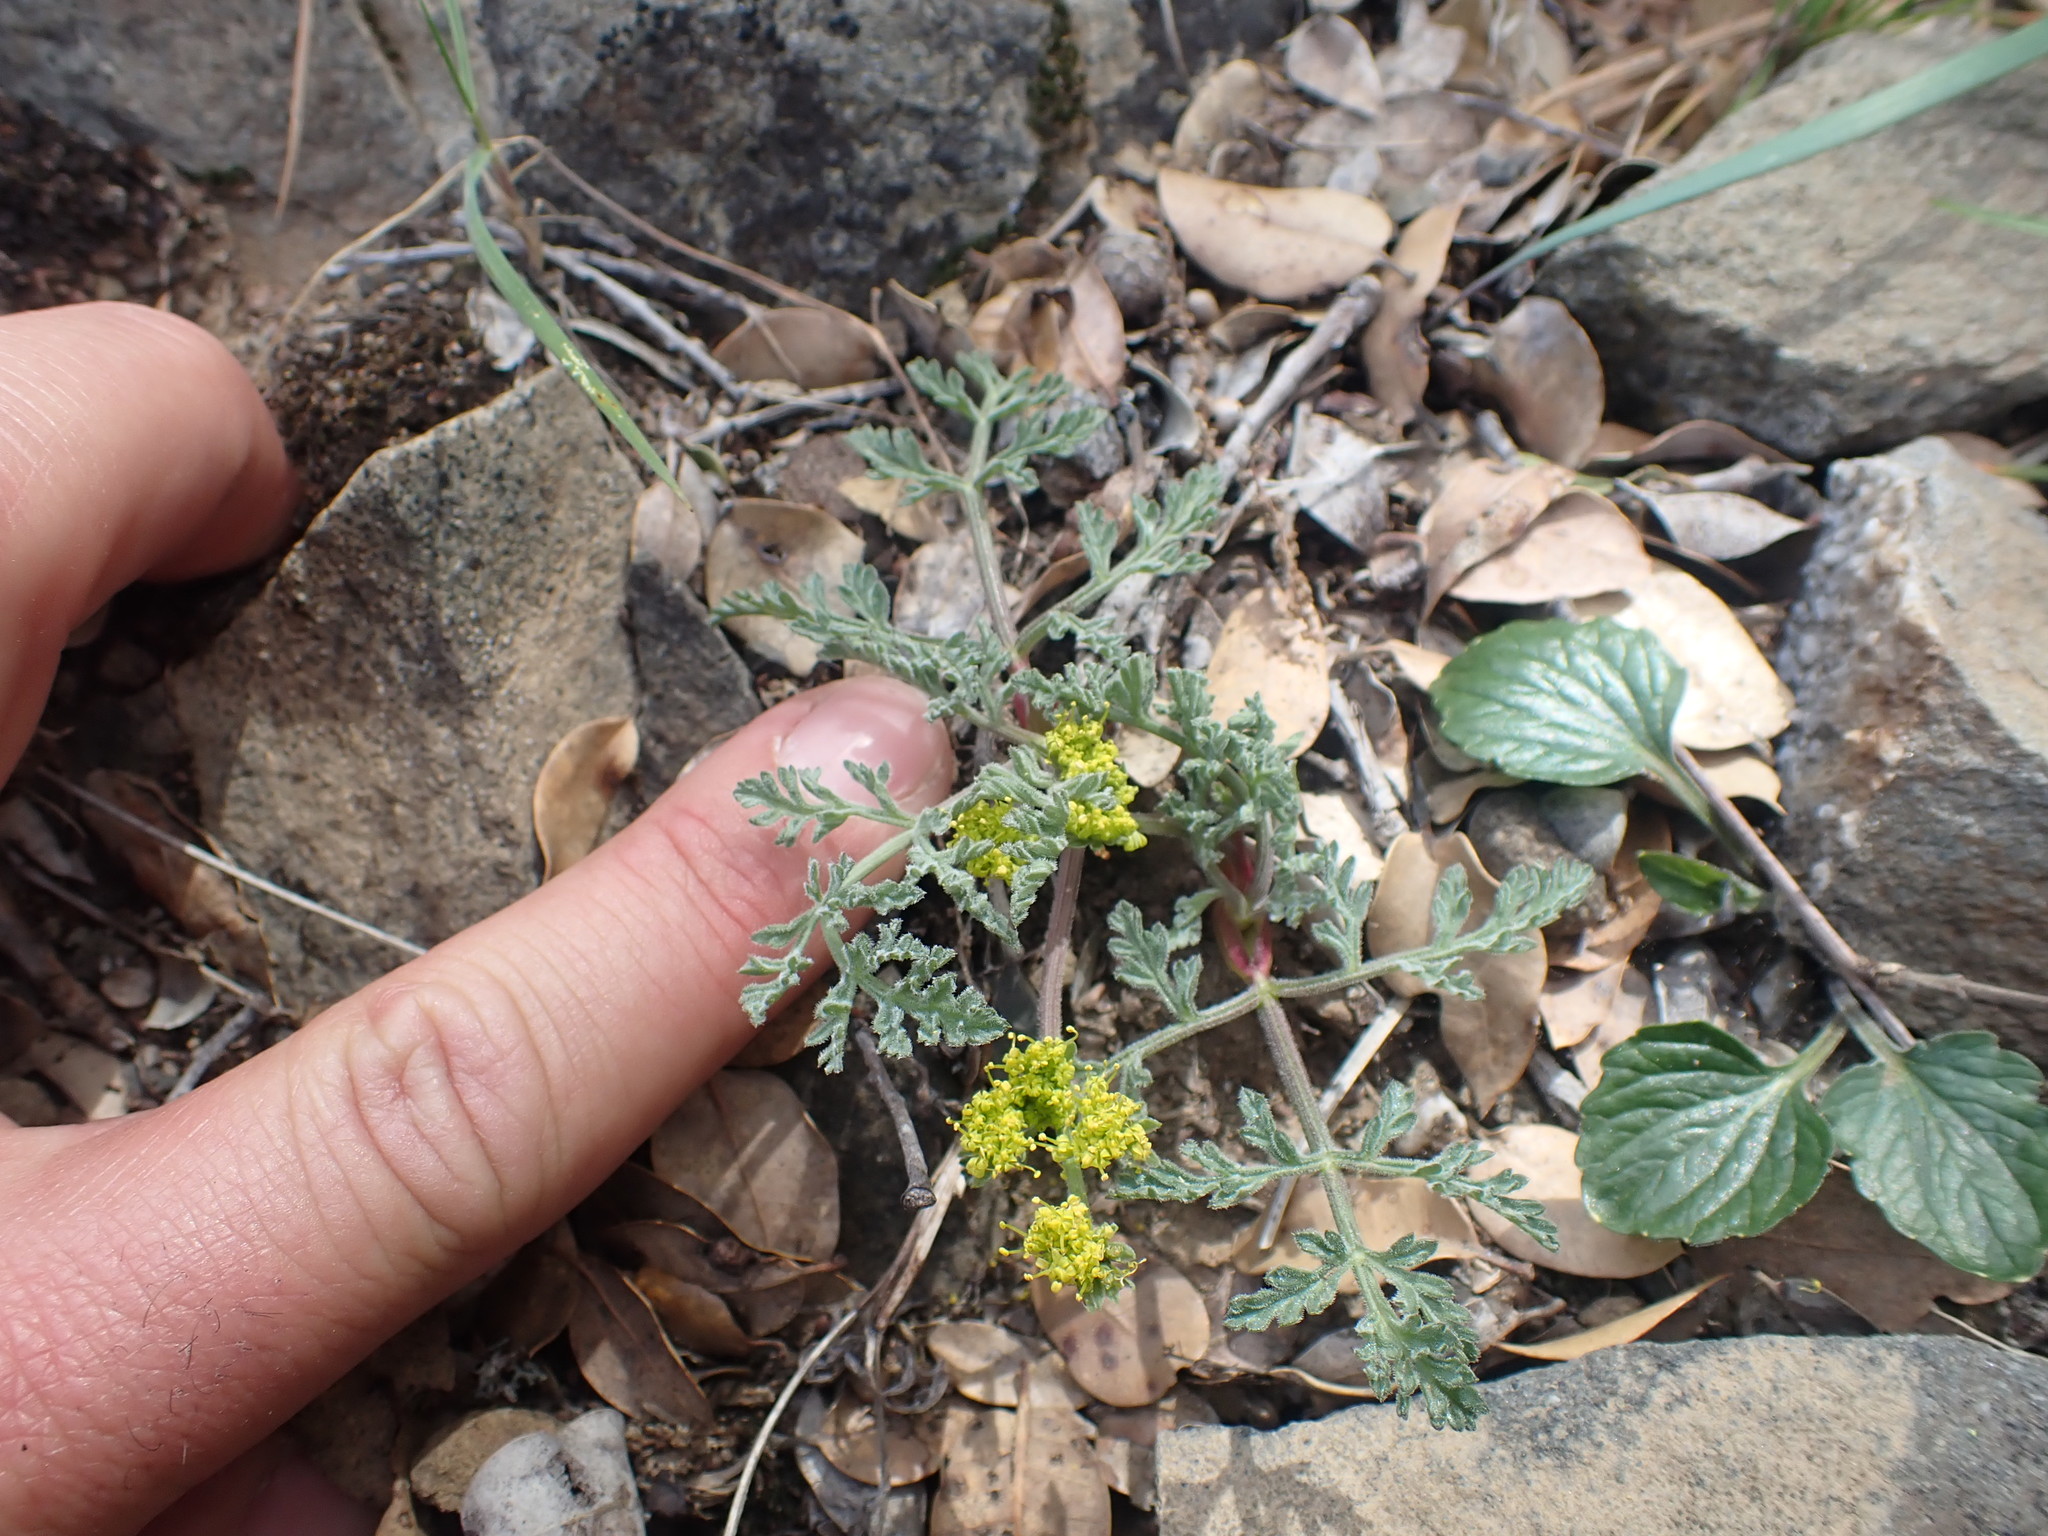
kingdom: Plantae
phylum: Tracheophyta
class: Magnoliopsida
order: Apiales
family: Apiaceae
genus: Lomatium
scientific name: Lomatium observatorium
